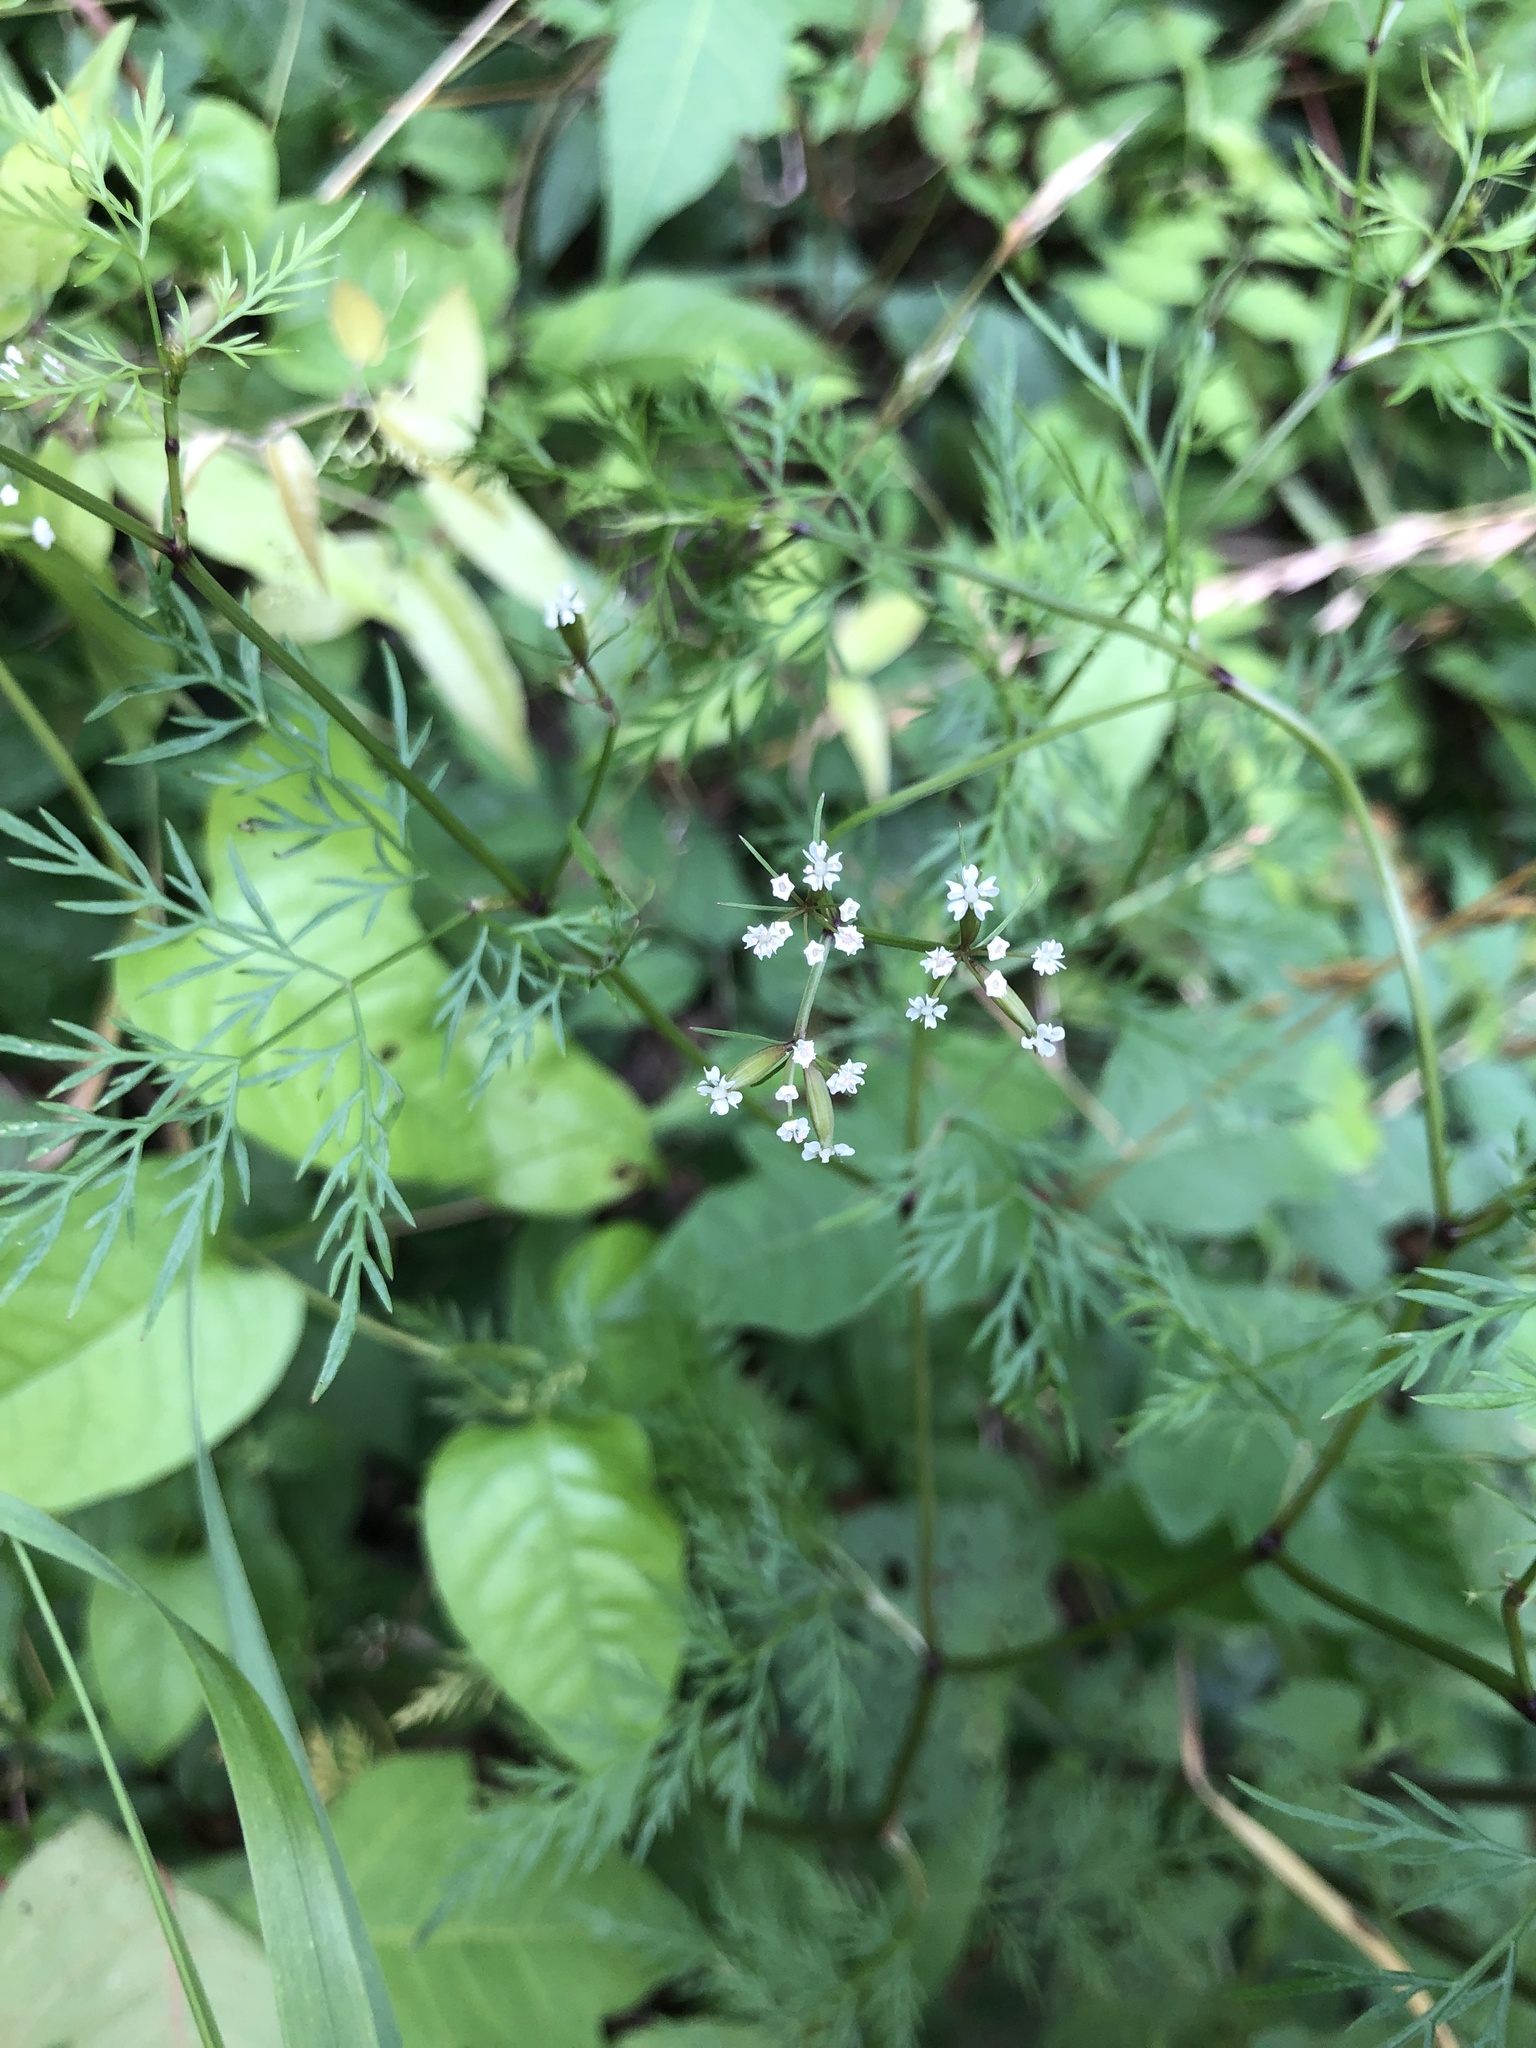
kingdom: Plantae
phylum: Tracheophyta
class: Magnoliopsida
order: Apiales
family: Apiaceae
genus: Trepocarpus
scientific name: Trepocarpus aethusae
